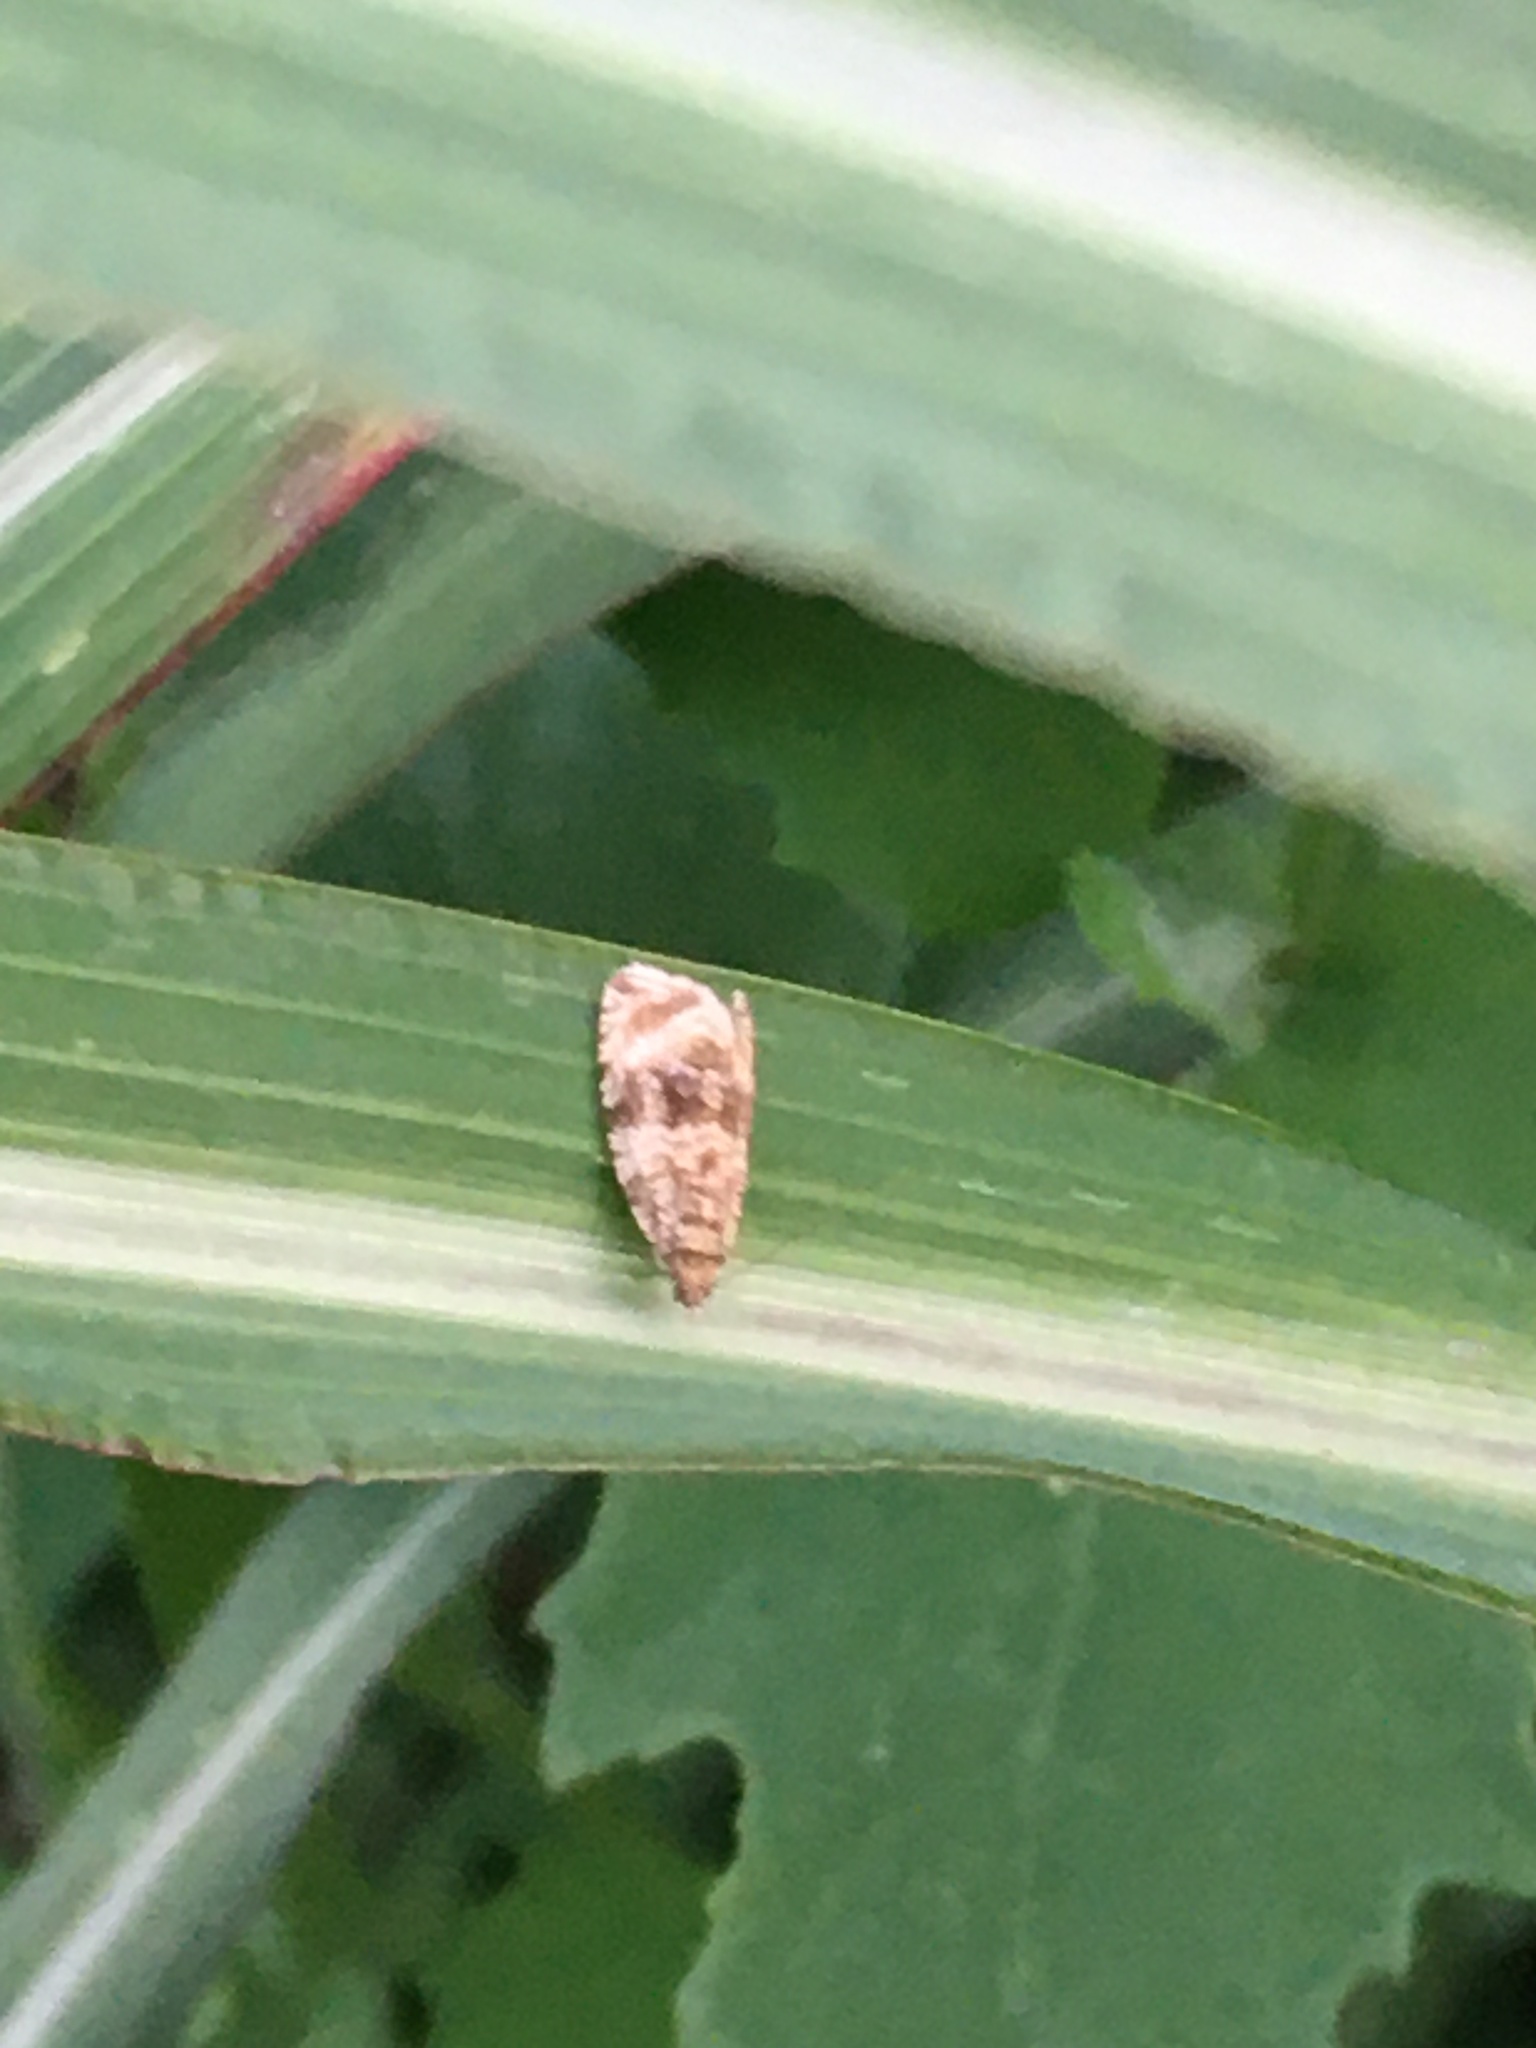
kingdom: Animalia
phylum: Arthropoda
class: Insecta
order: Lepidoptera
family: Tortricidae
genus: Syricoris
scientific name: Syricoris lacunana
